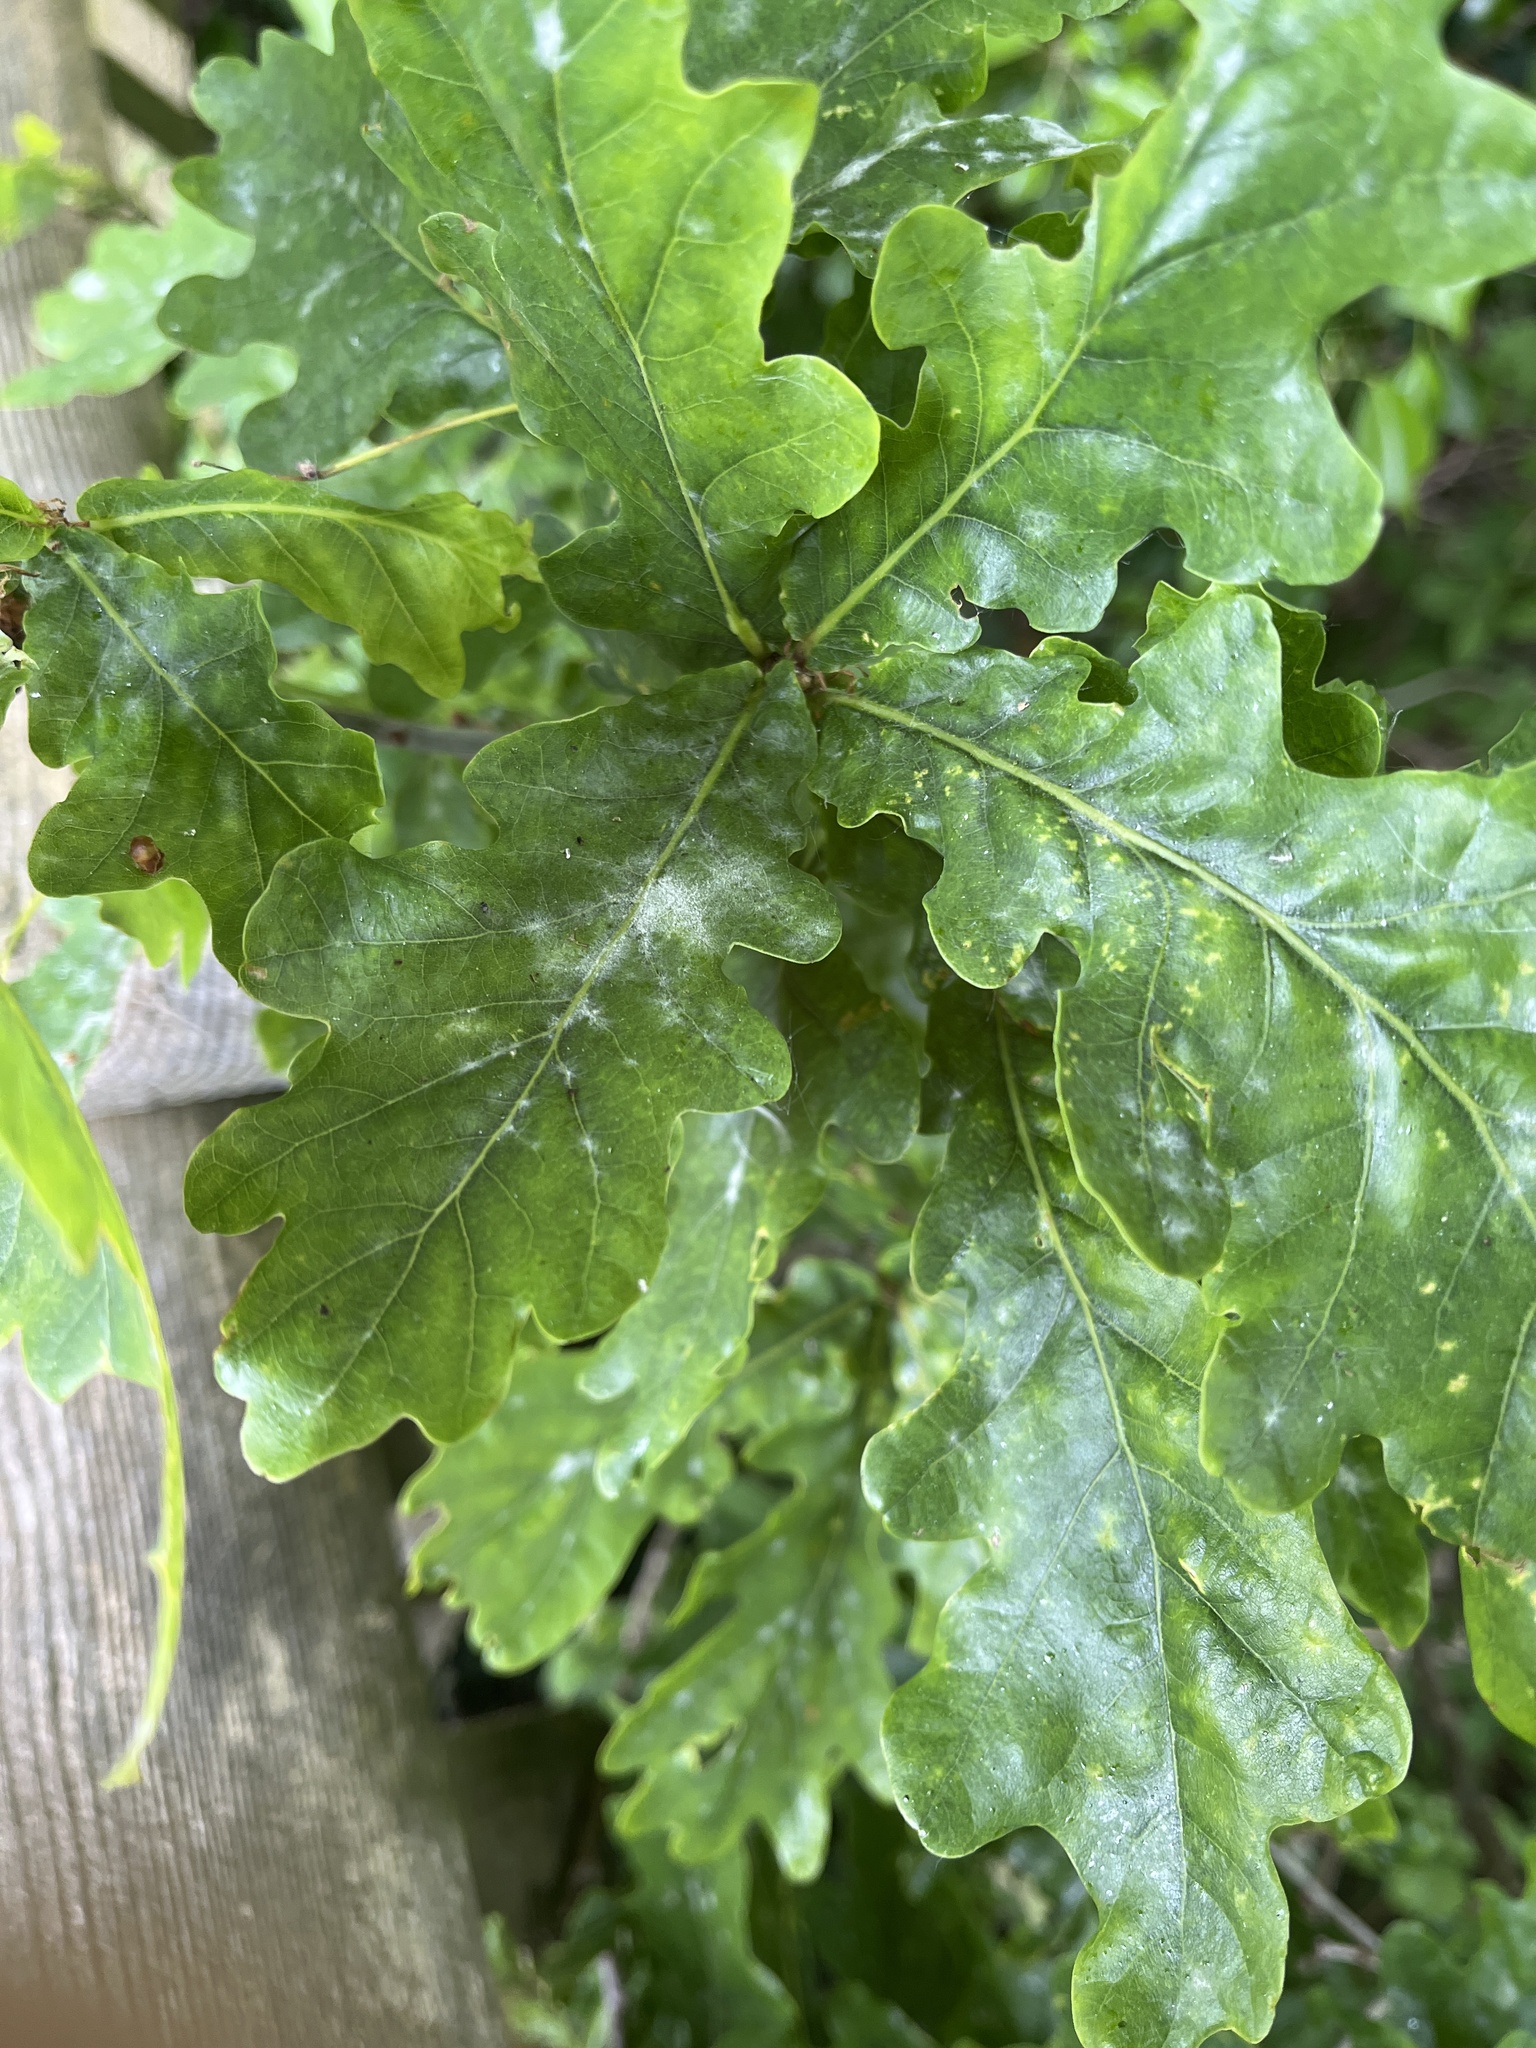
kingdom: Fungi
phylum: Ascomycota
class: Leotiomycetes
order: Helotiales
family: Erysiphaceae
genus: Erysiphe
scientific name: Erysiphe alphitoides
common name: Oak mildew
